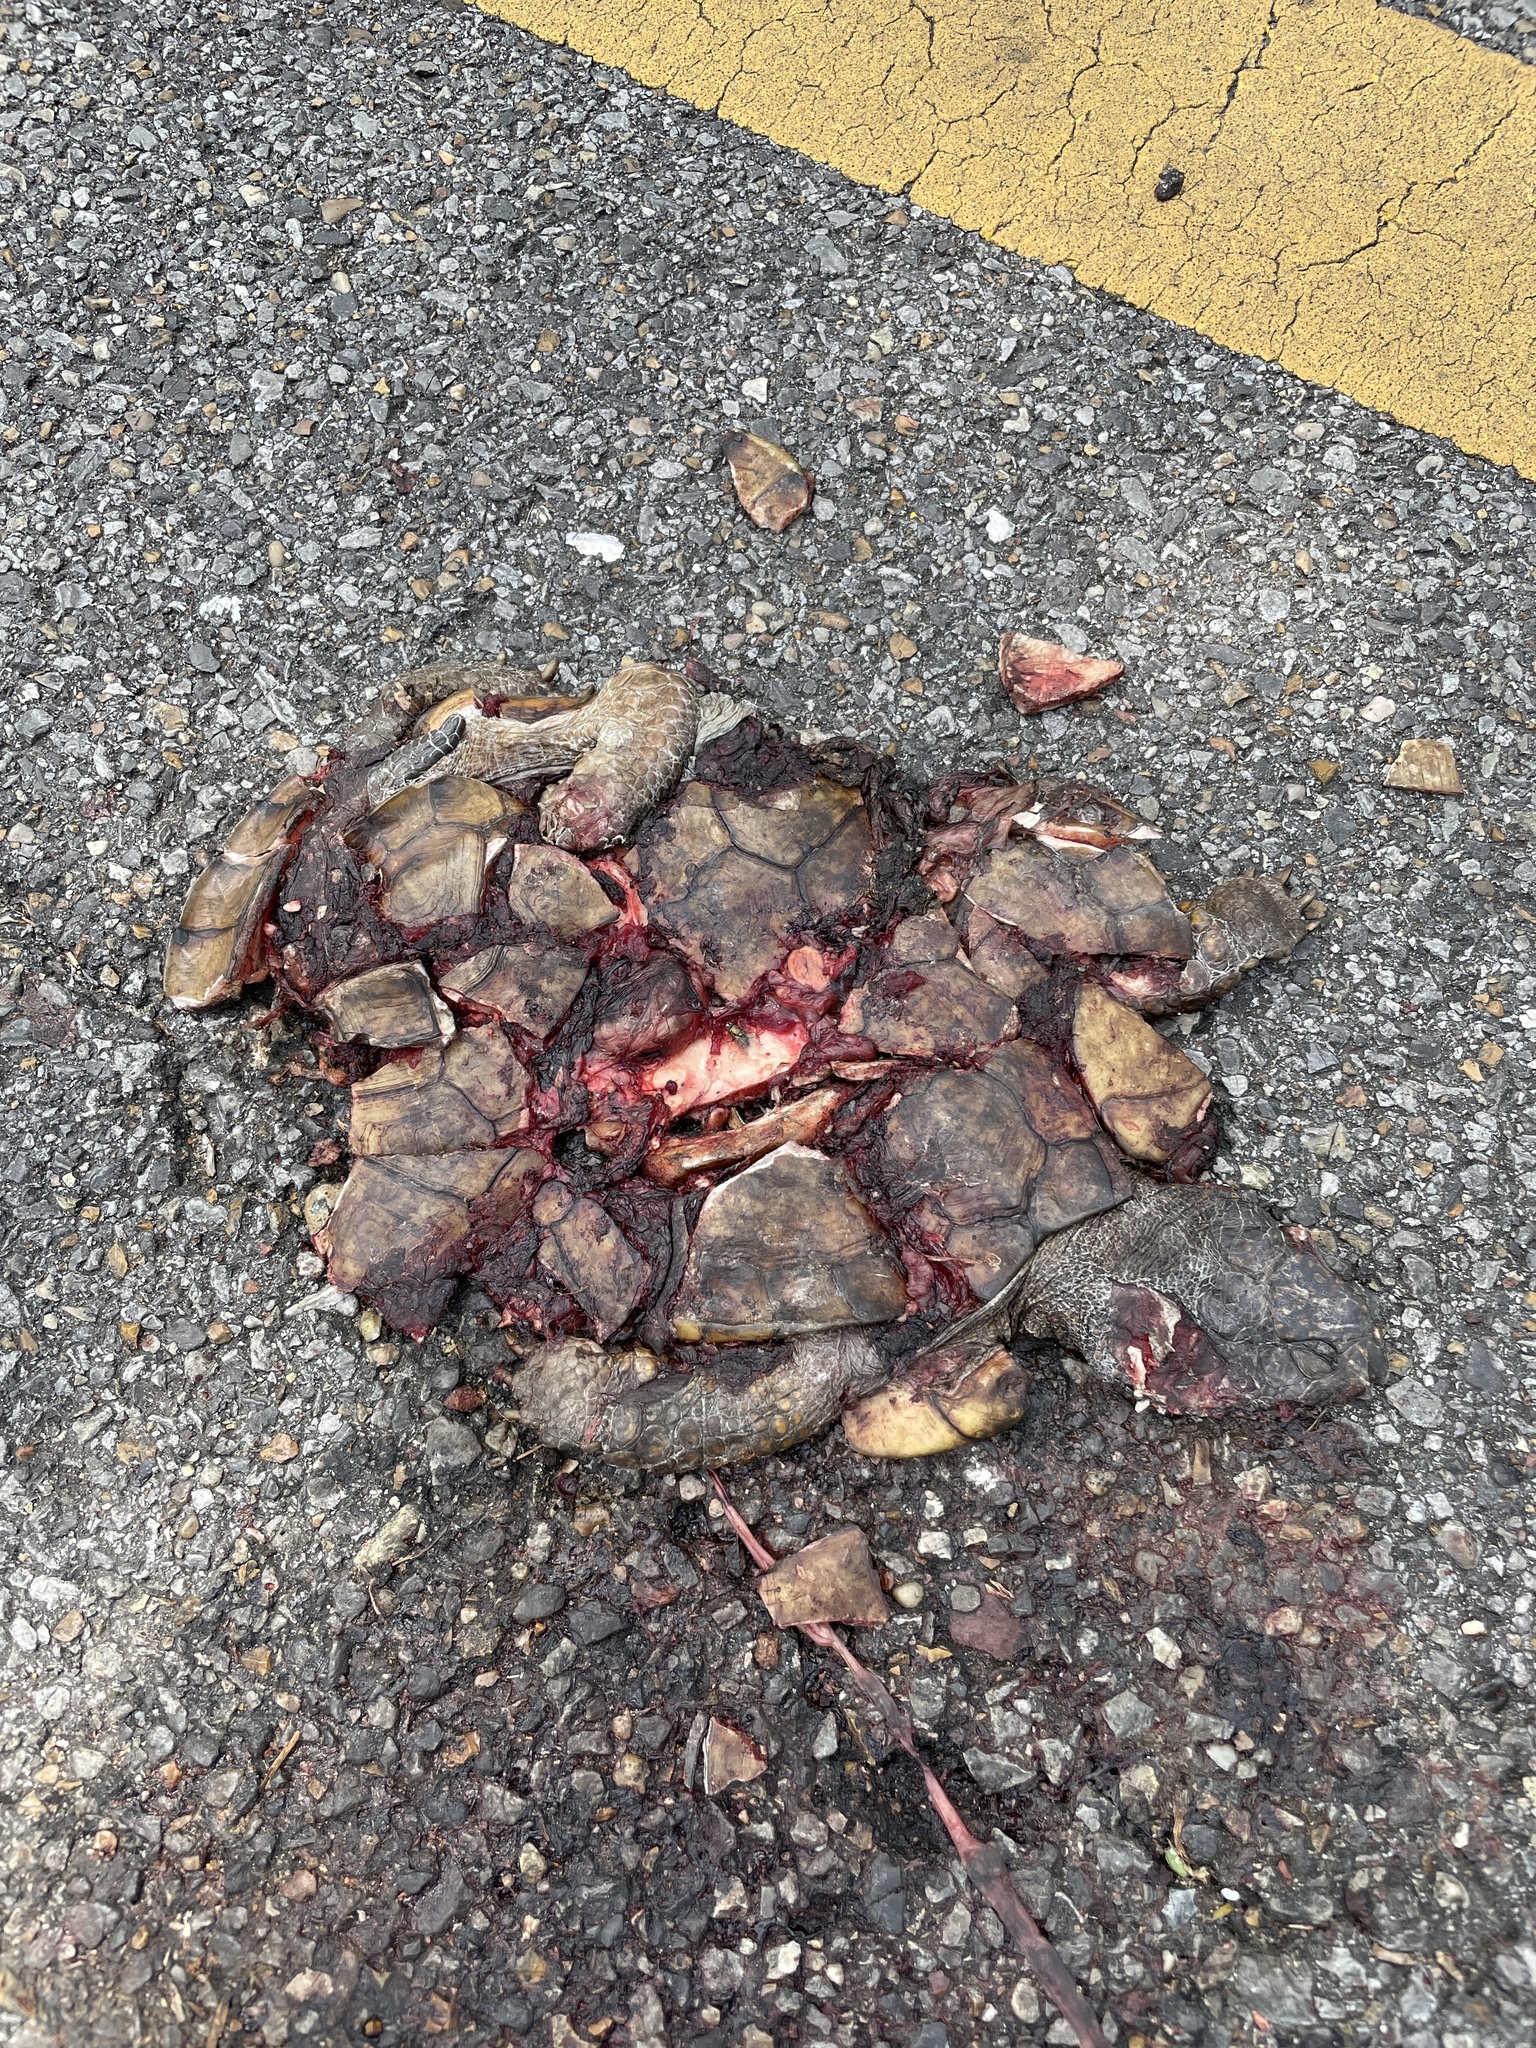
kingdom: Animalia
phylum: Chordata
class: Testudines
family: Emydidae
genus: Terrapene
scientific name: Terrapene carolina
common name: Common box turtle
